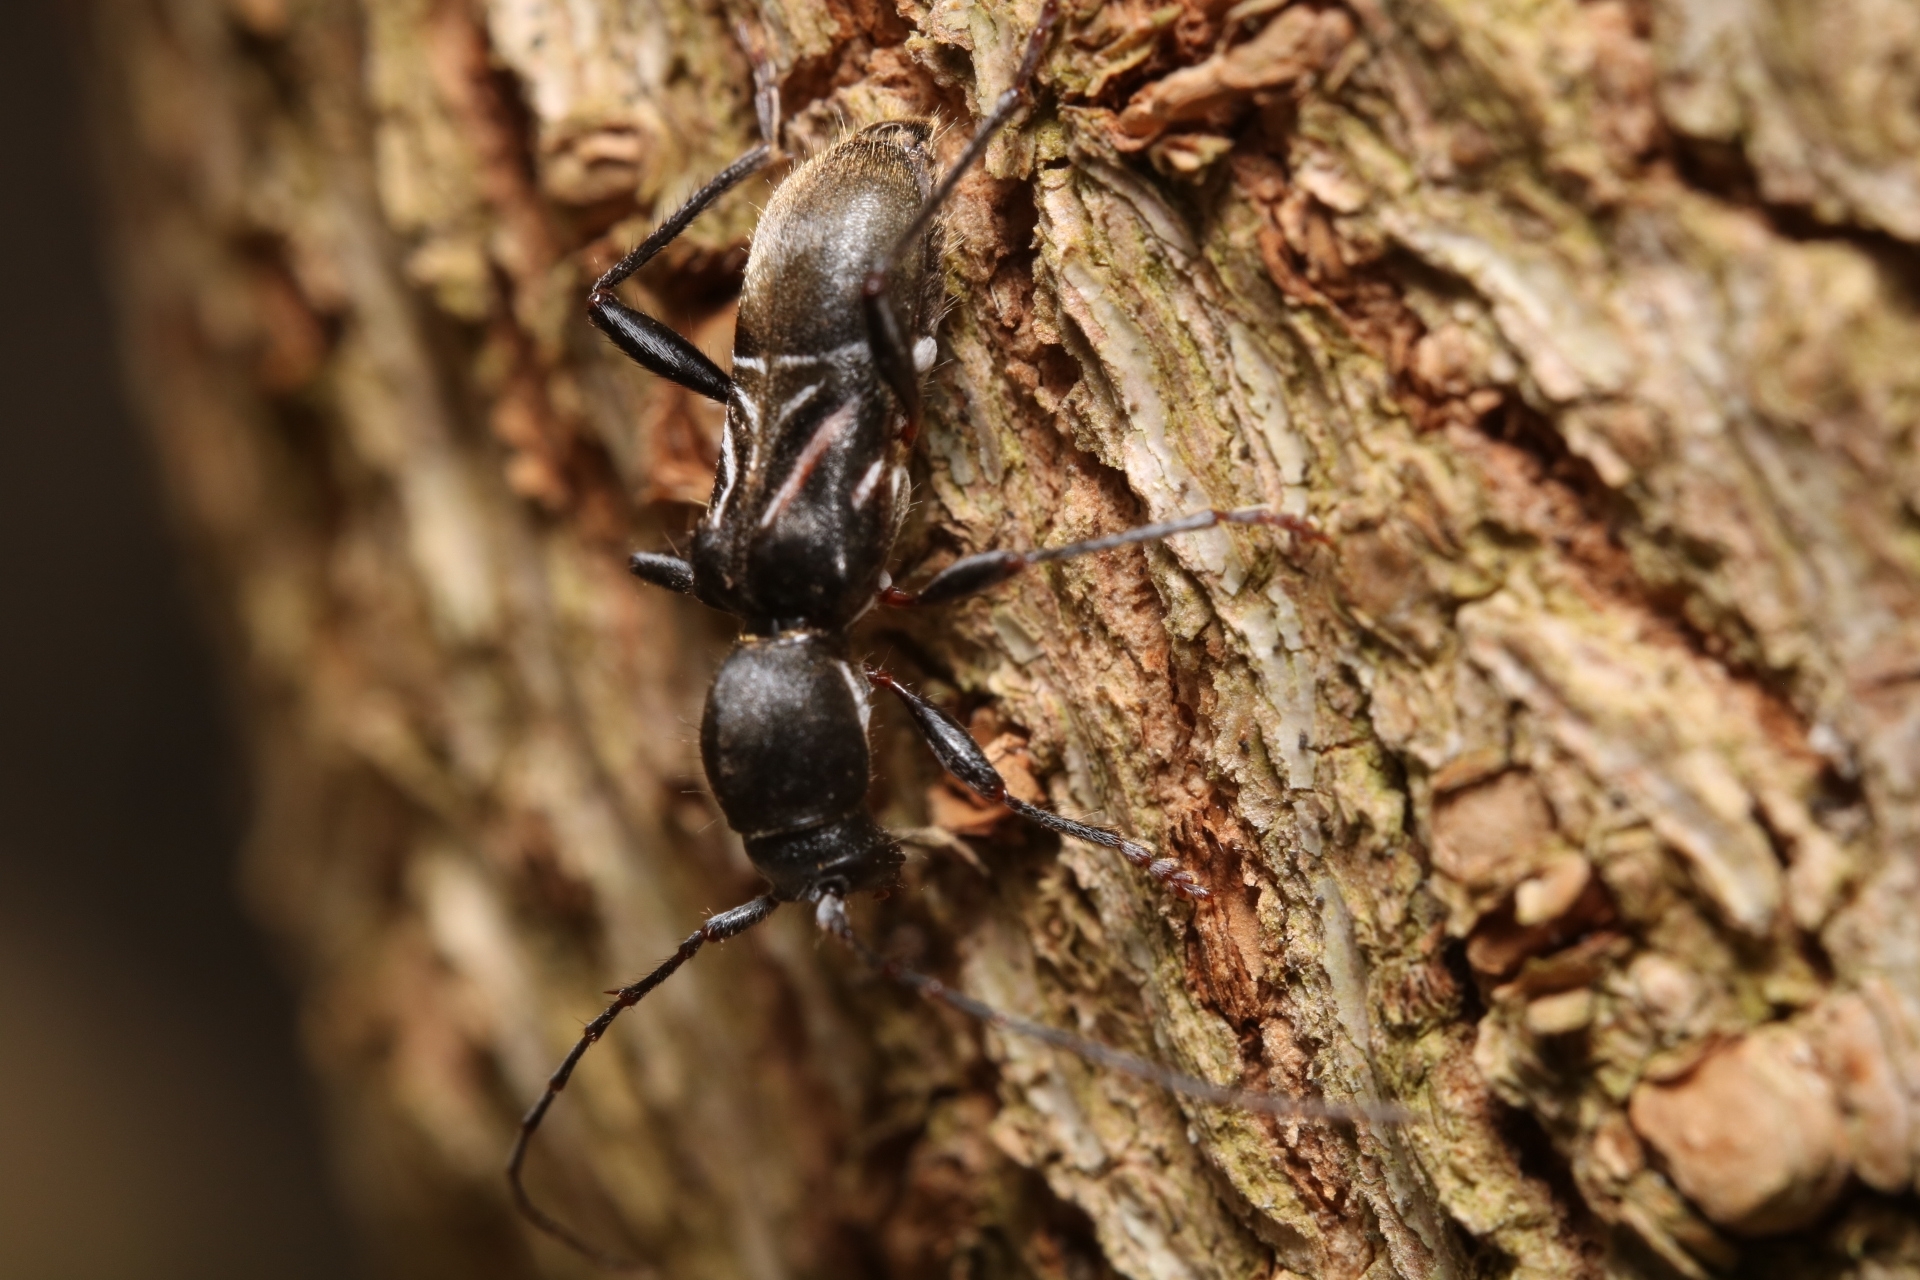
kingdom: Animalia
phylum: Arthropoda
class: Insecta
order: Coleoptera
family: Cerambycidae
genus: Cyrtophorus
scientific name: Cyrtophorus verrucosus
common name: Ant-like longhorn beetle
